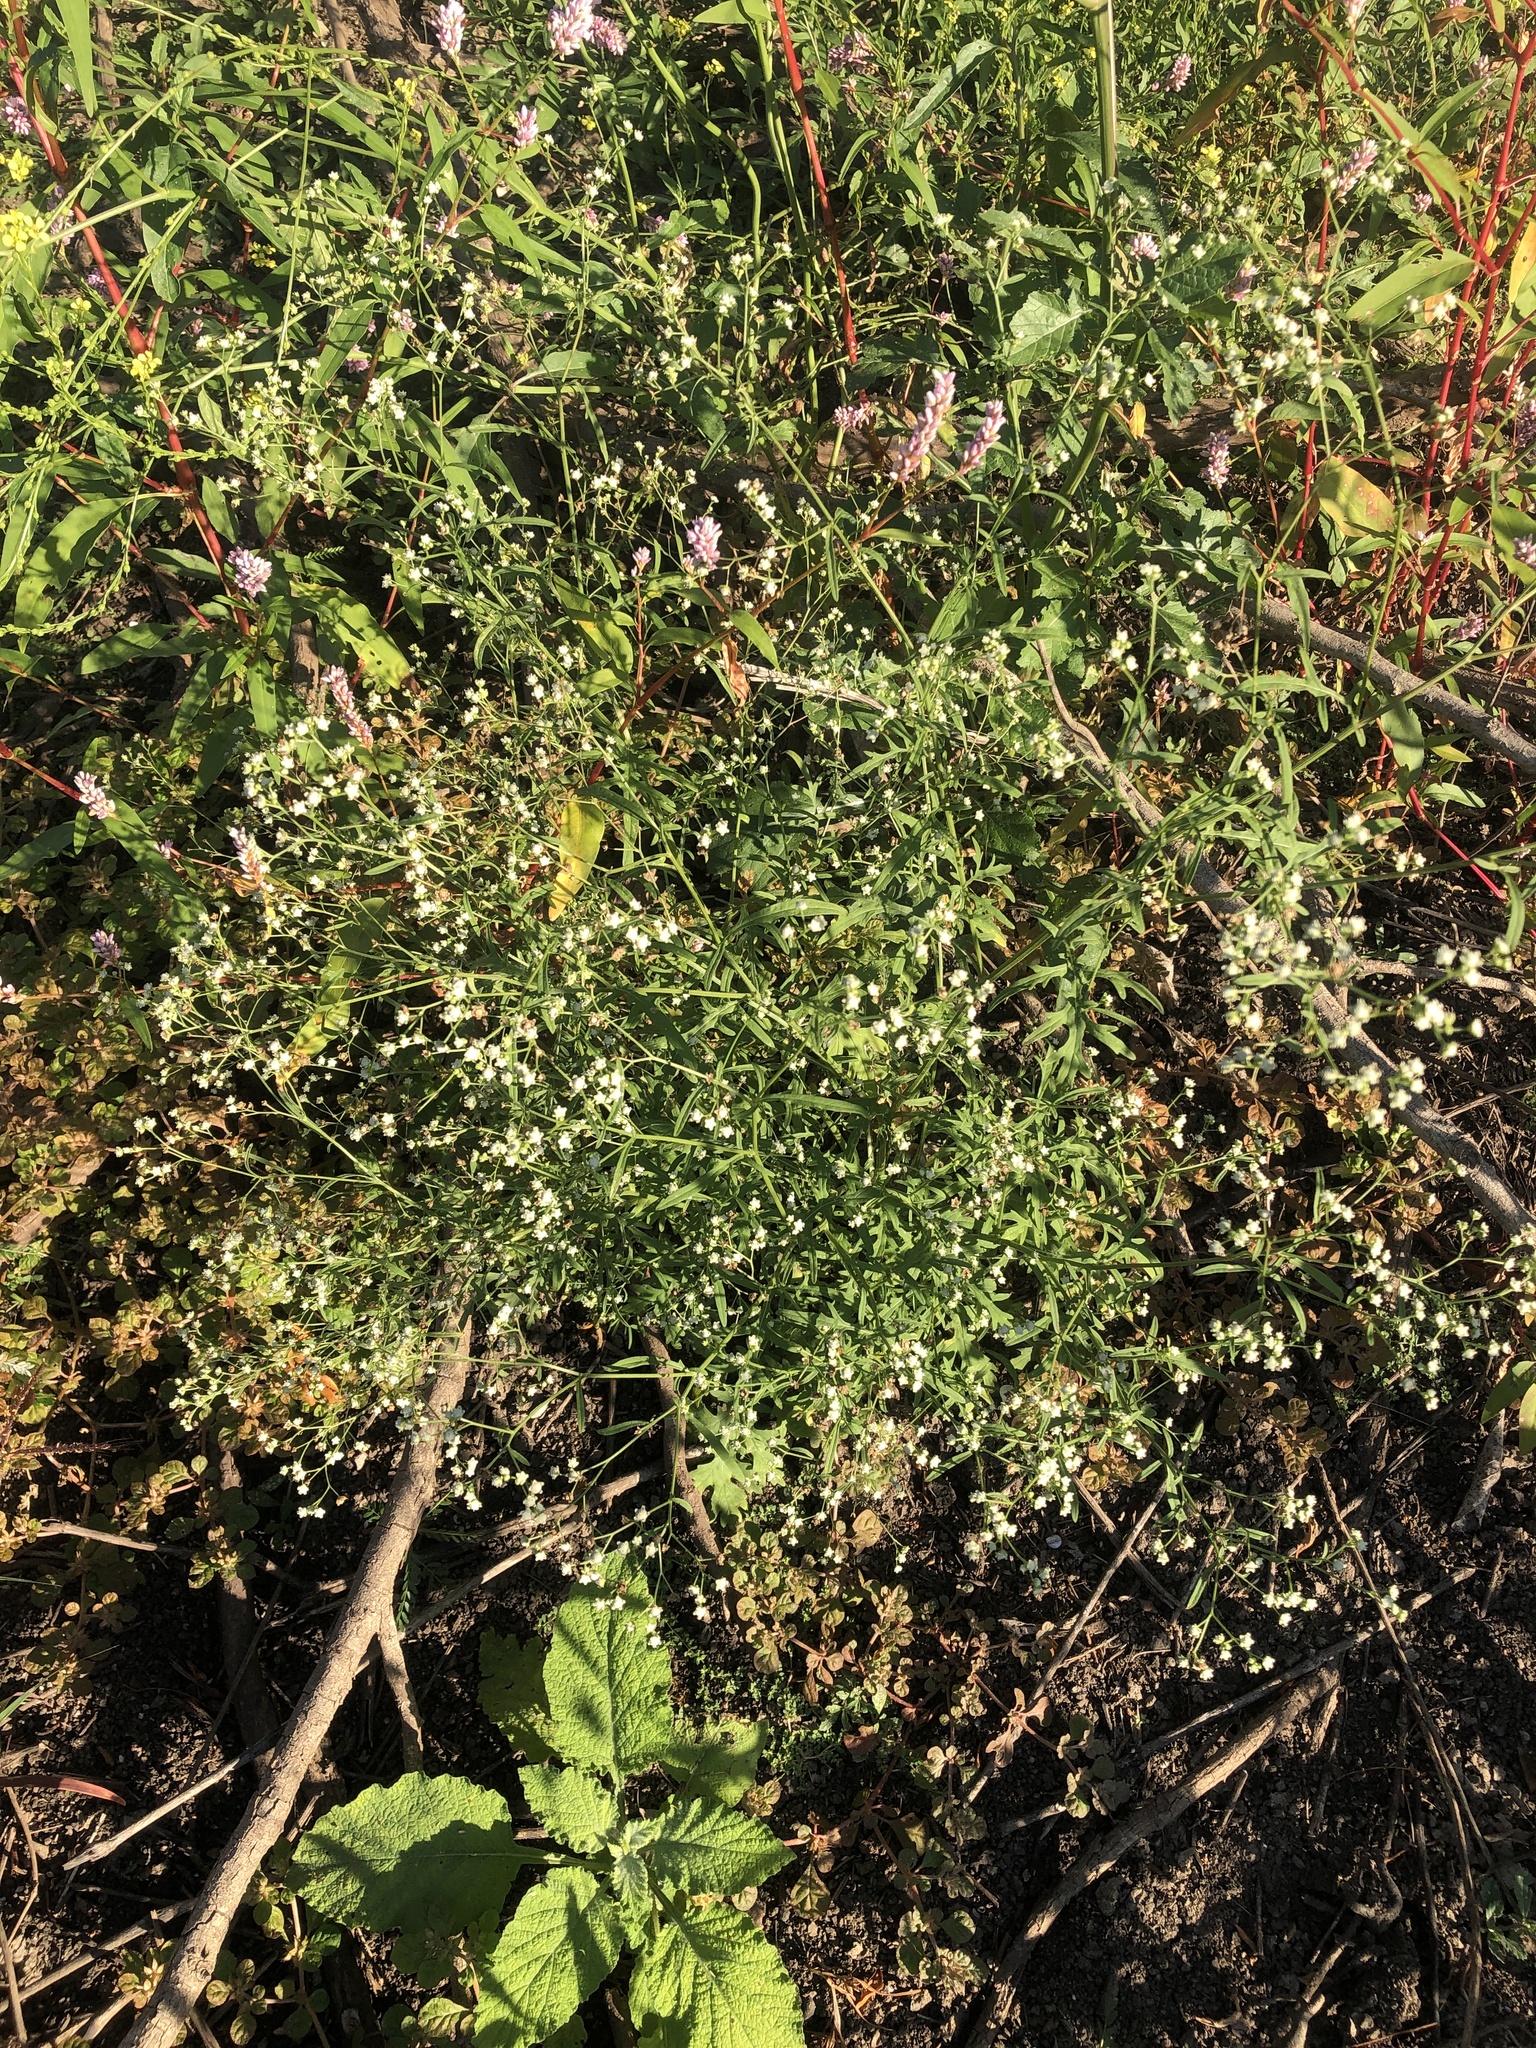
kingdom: Plantae
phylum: Tracheophyta
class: Magnoliopsida
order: Asterales
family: Asteraceae
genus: Parthenium
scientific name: Parthenium hysterophorus
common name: Santa maria feverfew
